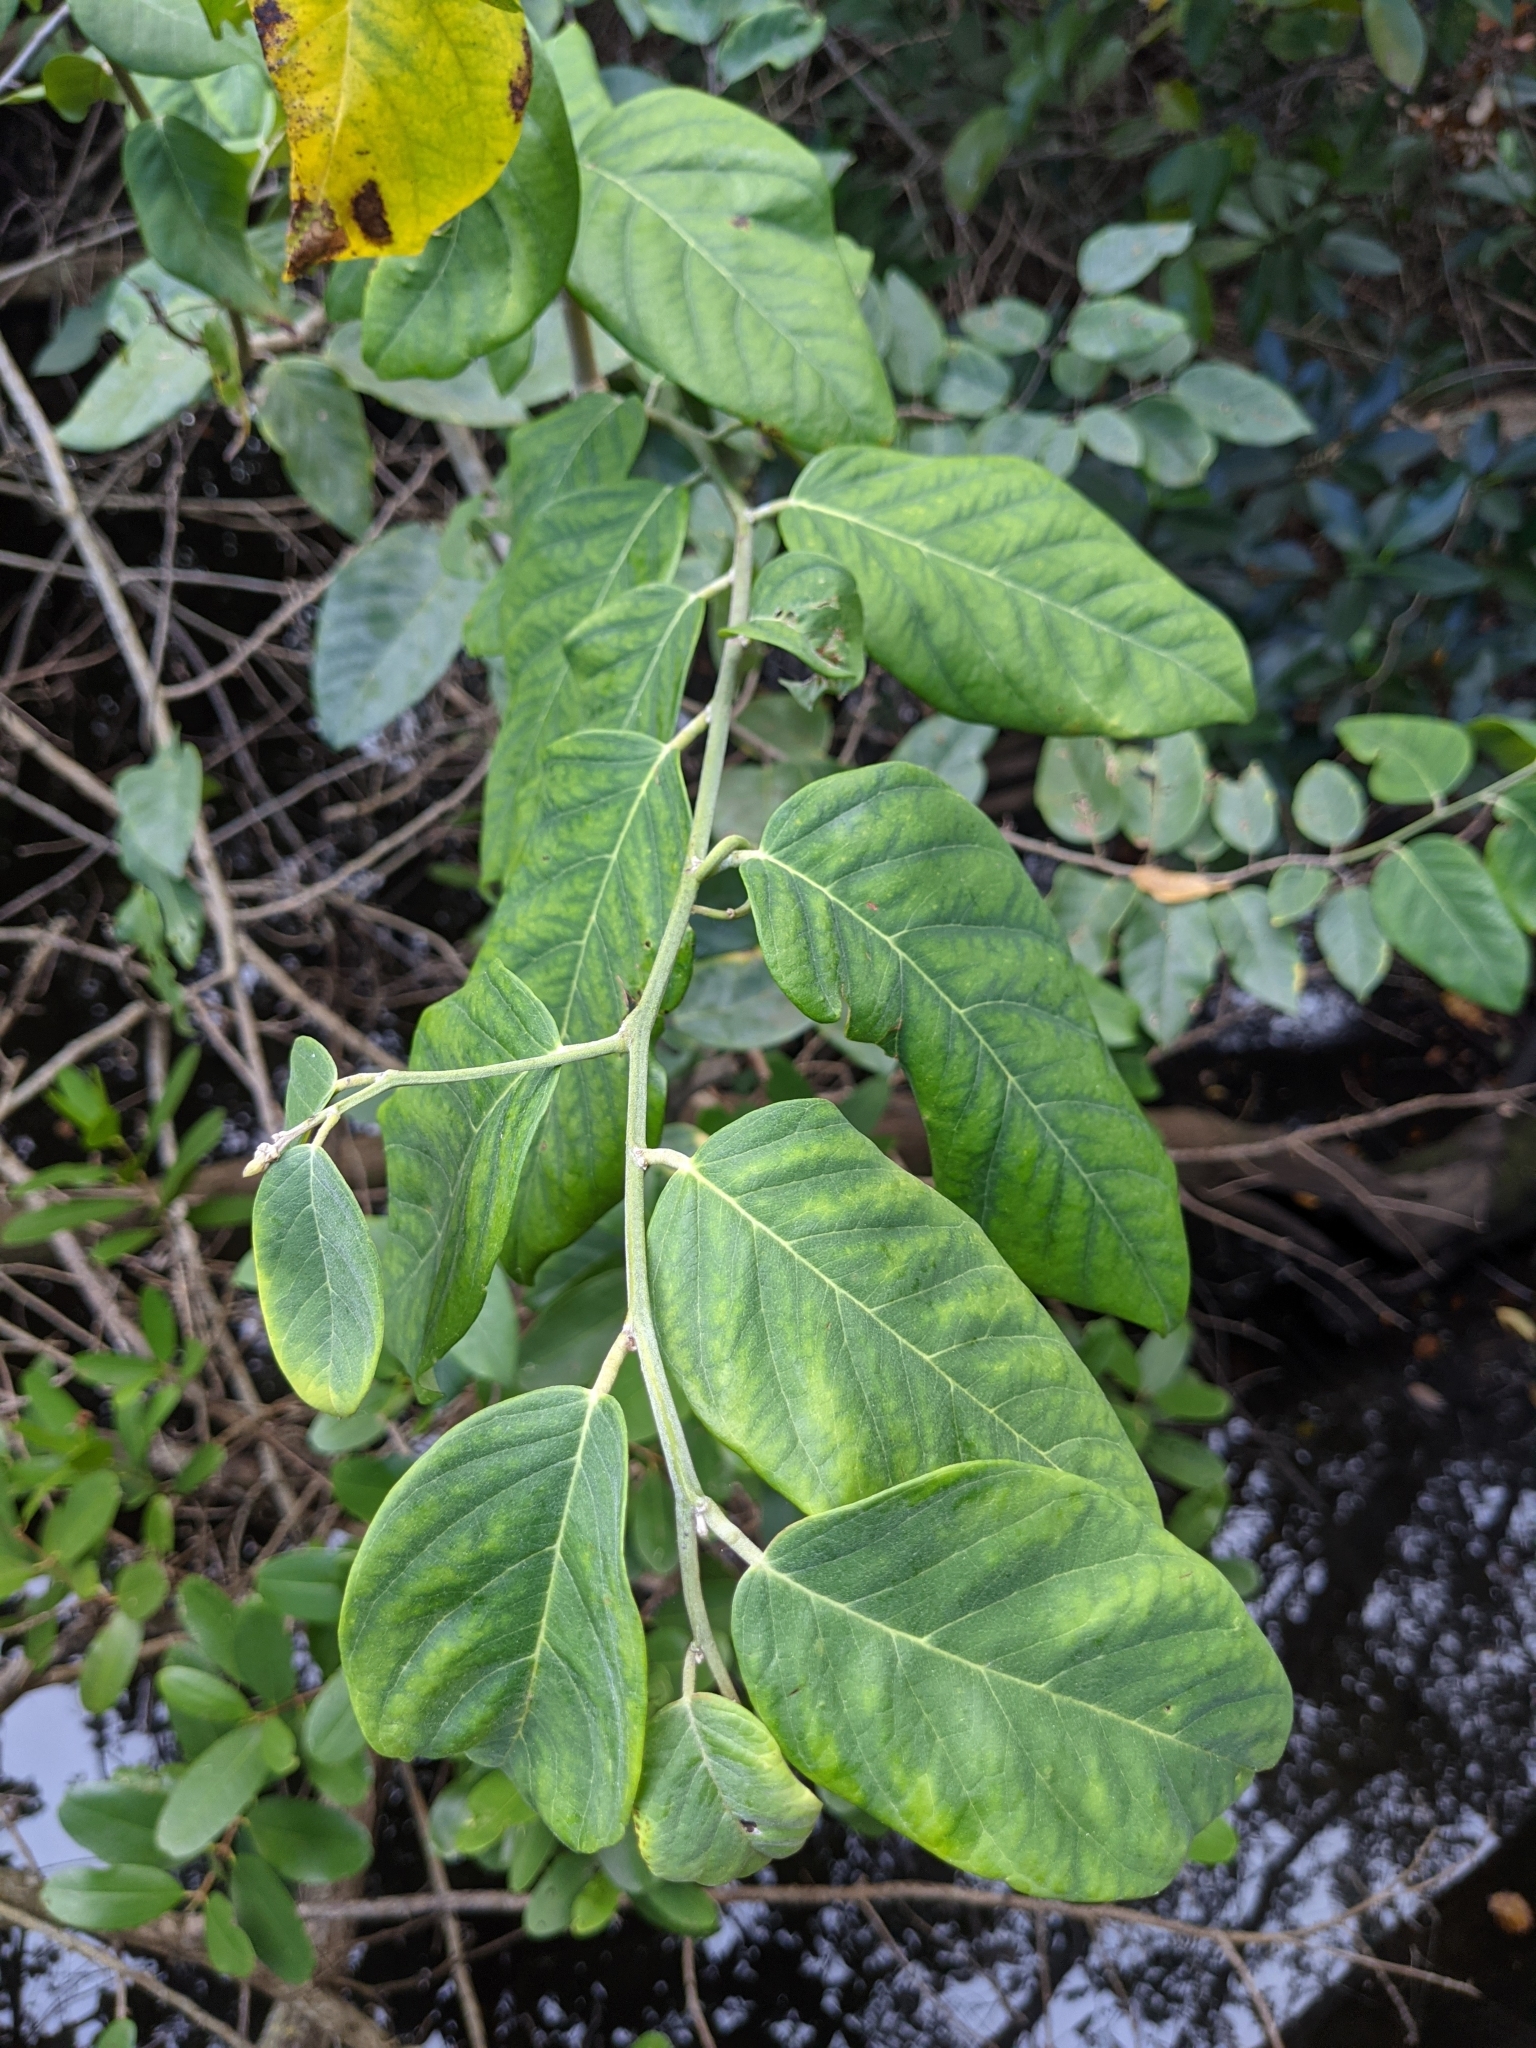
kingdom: Plantae
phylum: Tracheophyta
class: Magnoliopsida
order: Fabales
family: Fabaceae
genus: Dalbergia
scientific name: Dalbergia ecastaphyllum
